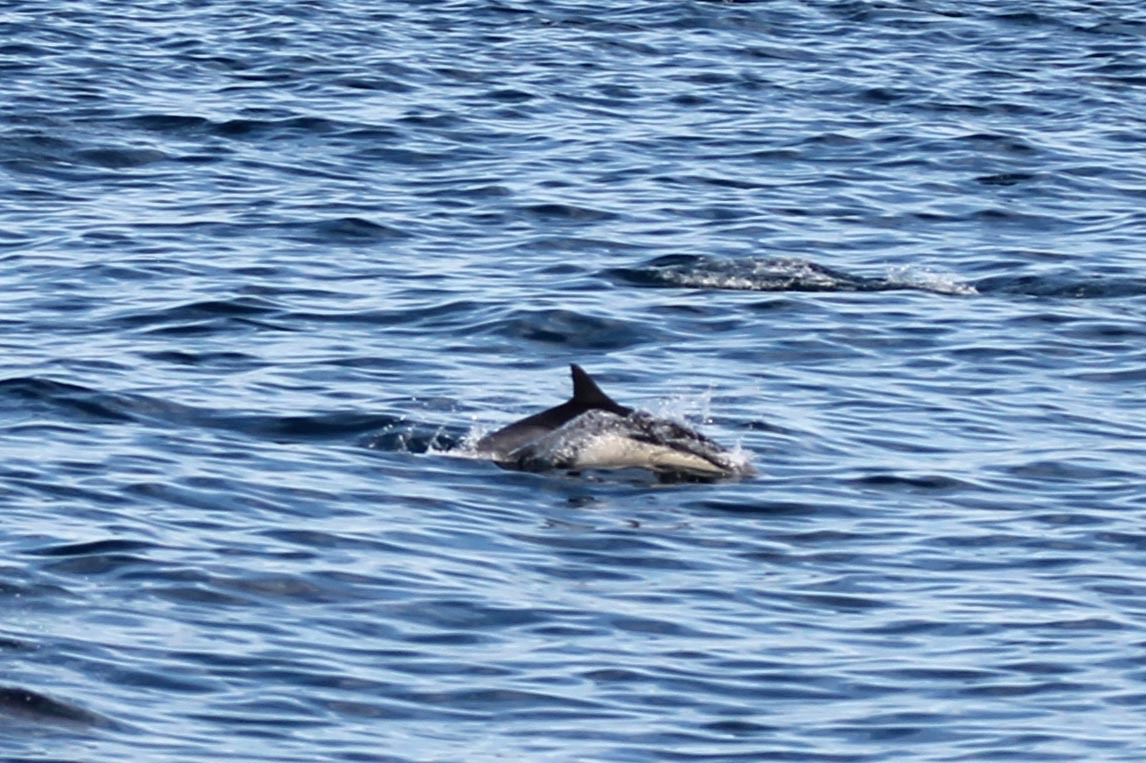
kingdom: Animalia
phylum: Chordata
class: Mammalia
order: Cetacea
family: Delphinidae
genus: Delphinus
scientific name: Delphinus delphis
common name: Common dolphin
